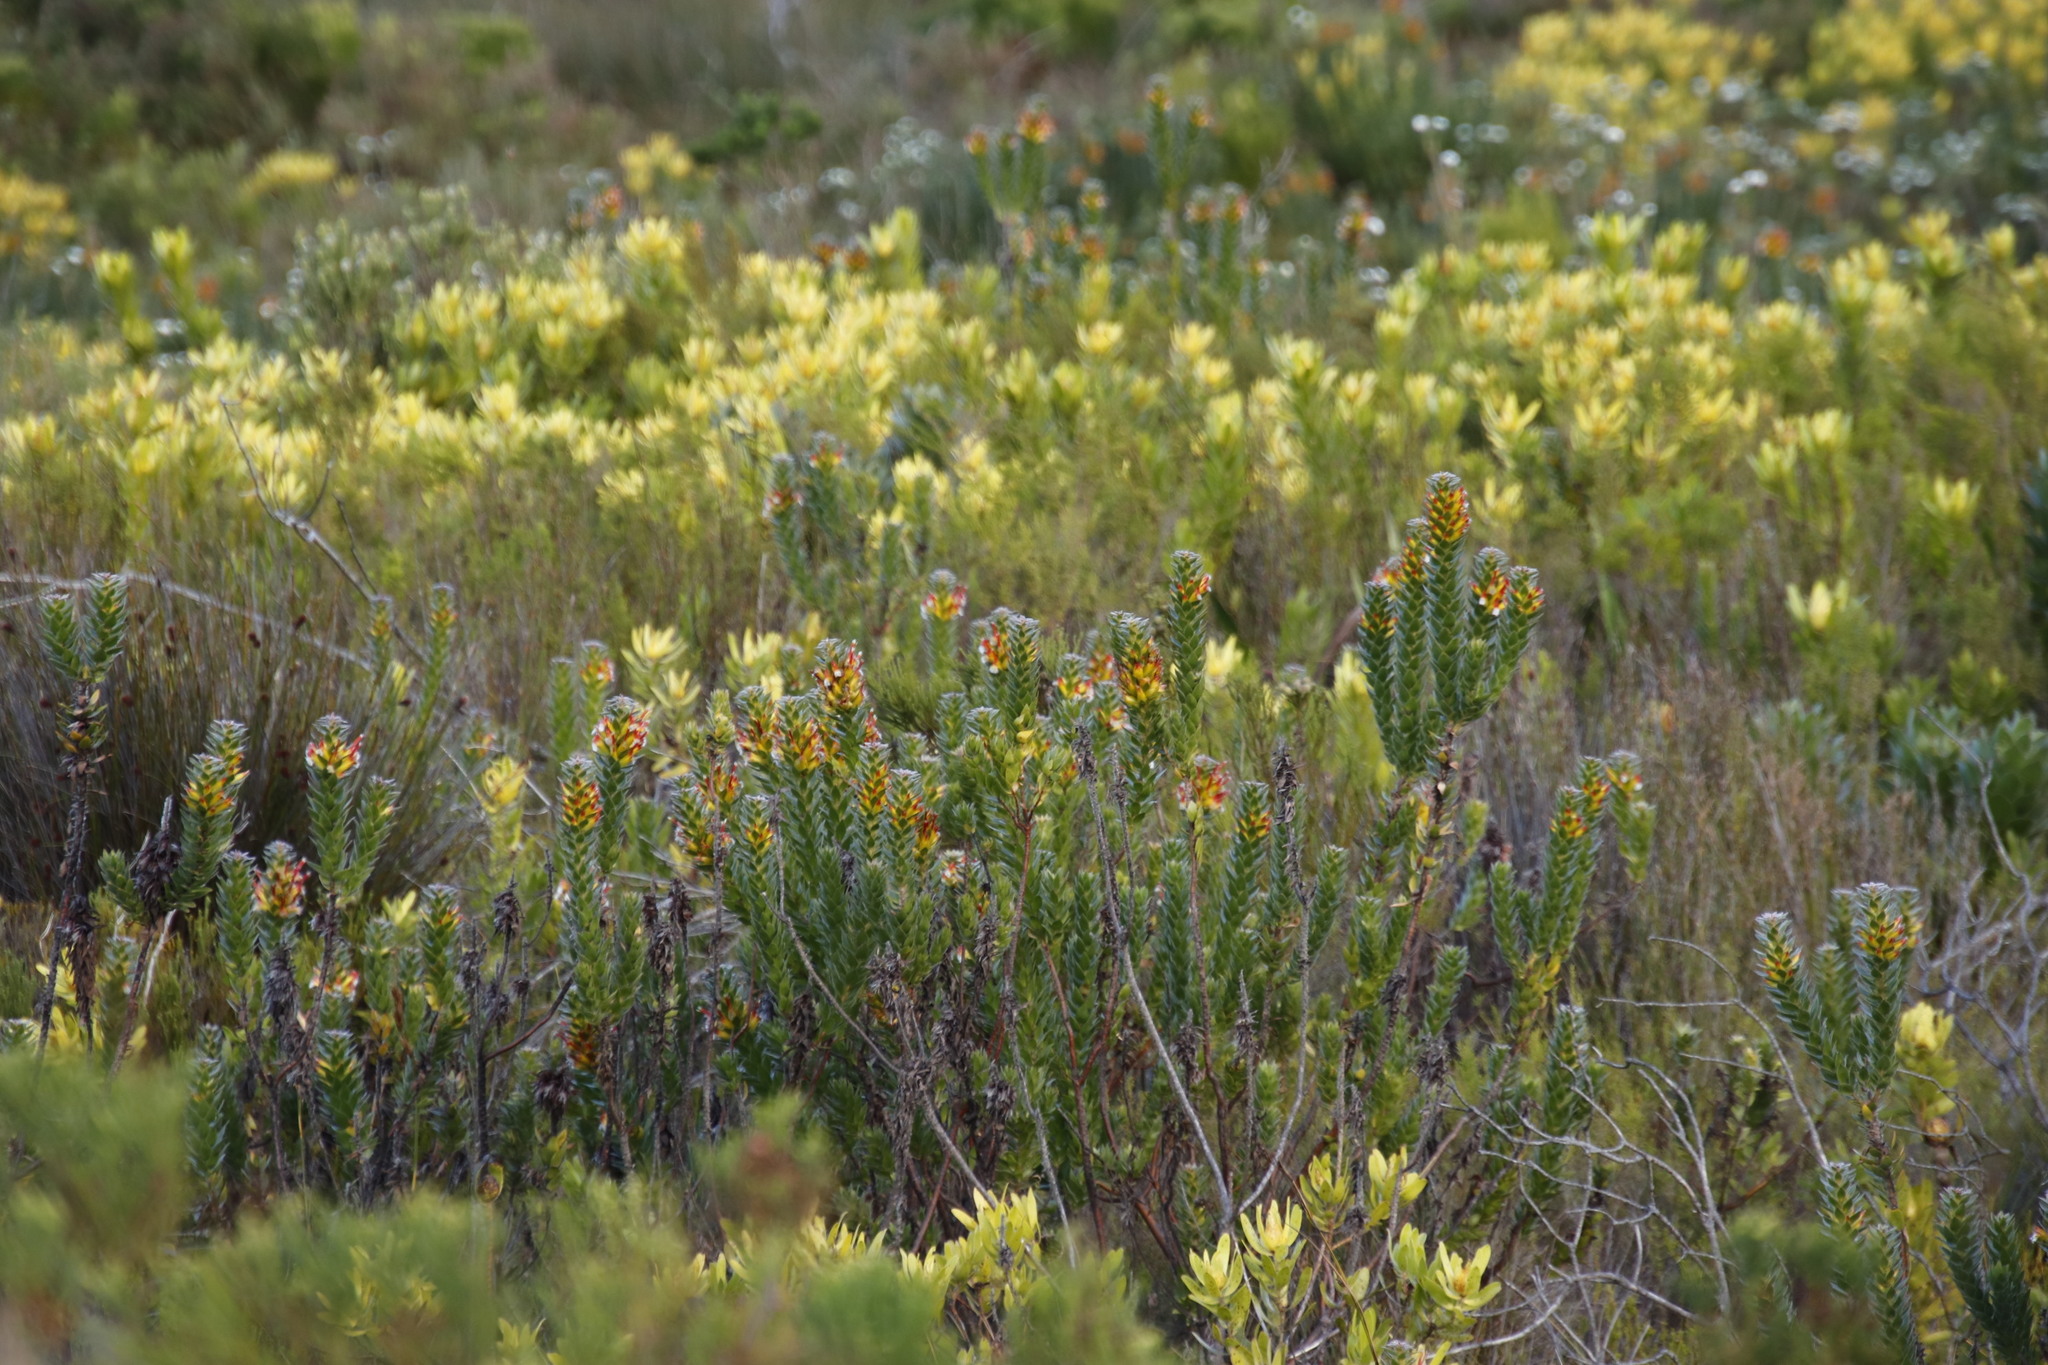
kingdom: Plantae
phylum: Tracheophyta
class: Magnoliopsida
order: Proteales
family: Proteaceae
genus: Mimetes
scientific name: Mimetes hirtus
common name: Marsh pagoda
